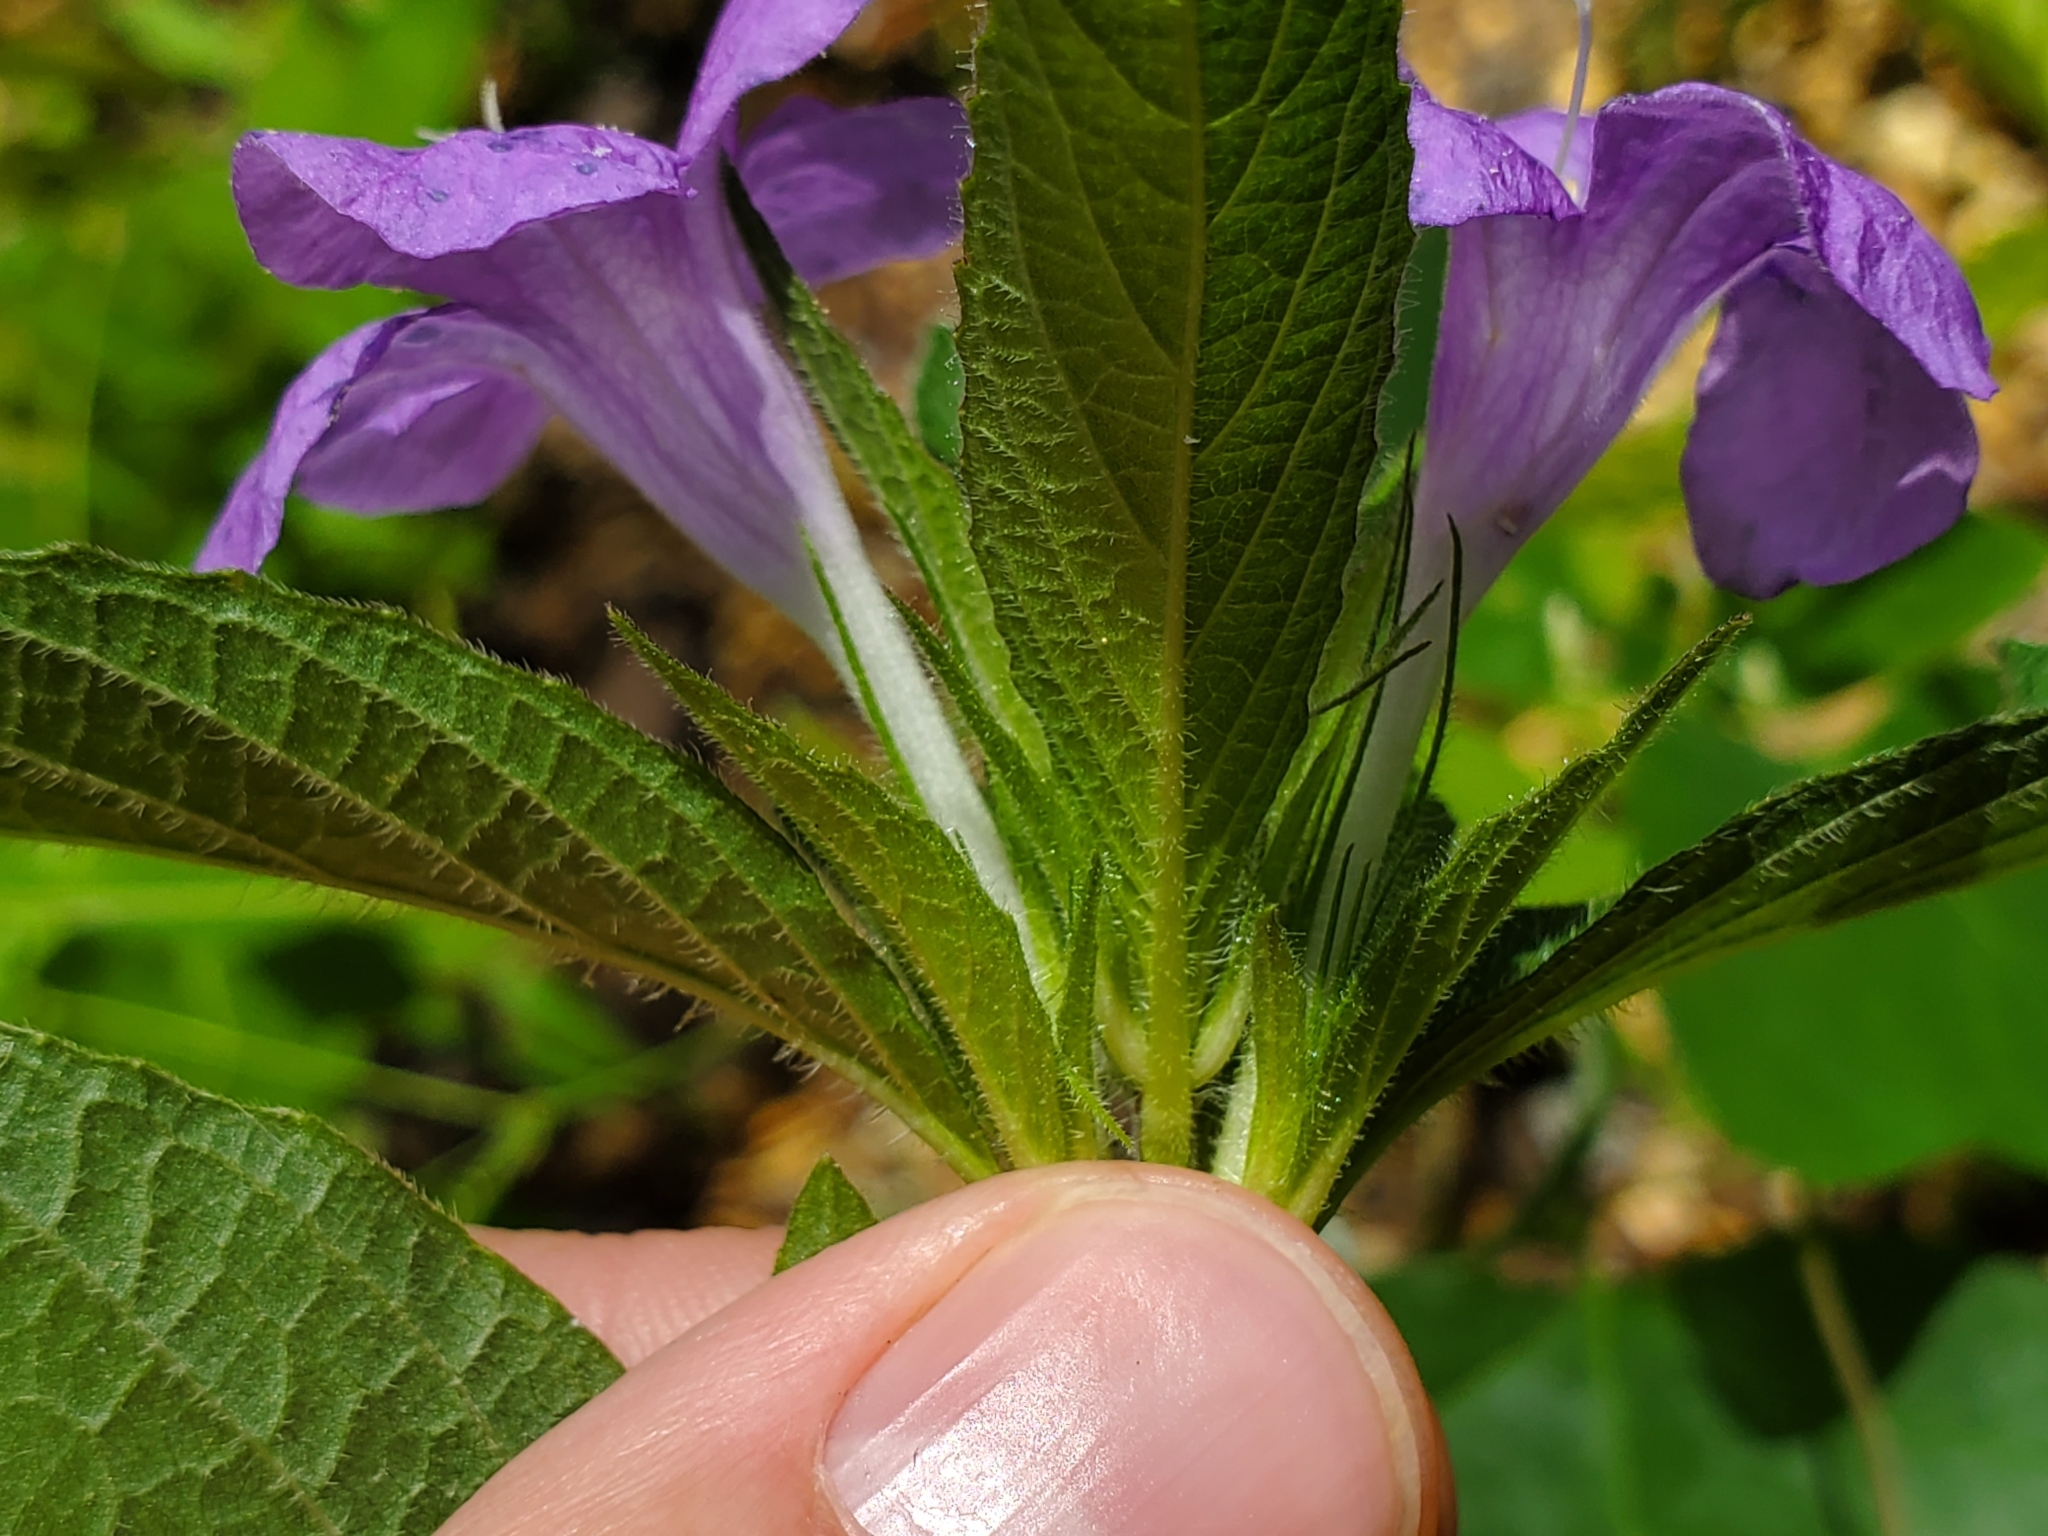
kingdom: Plantae
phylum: Tracheophyta
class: Magnoliopsida
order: Lamiales
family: Acanthaceae
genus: Ruellia
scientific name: Ruellia caroliniensis
